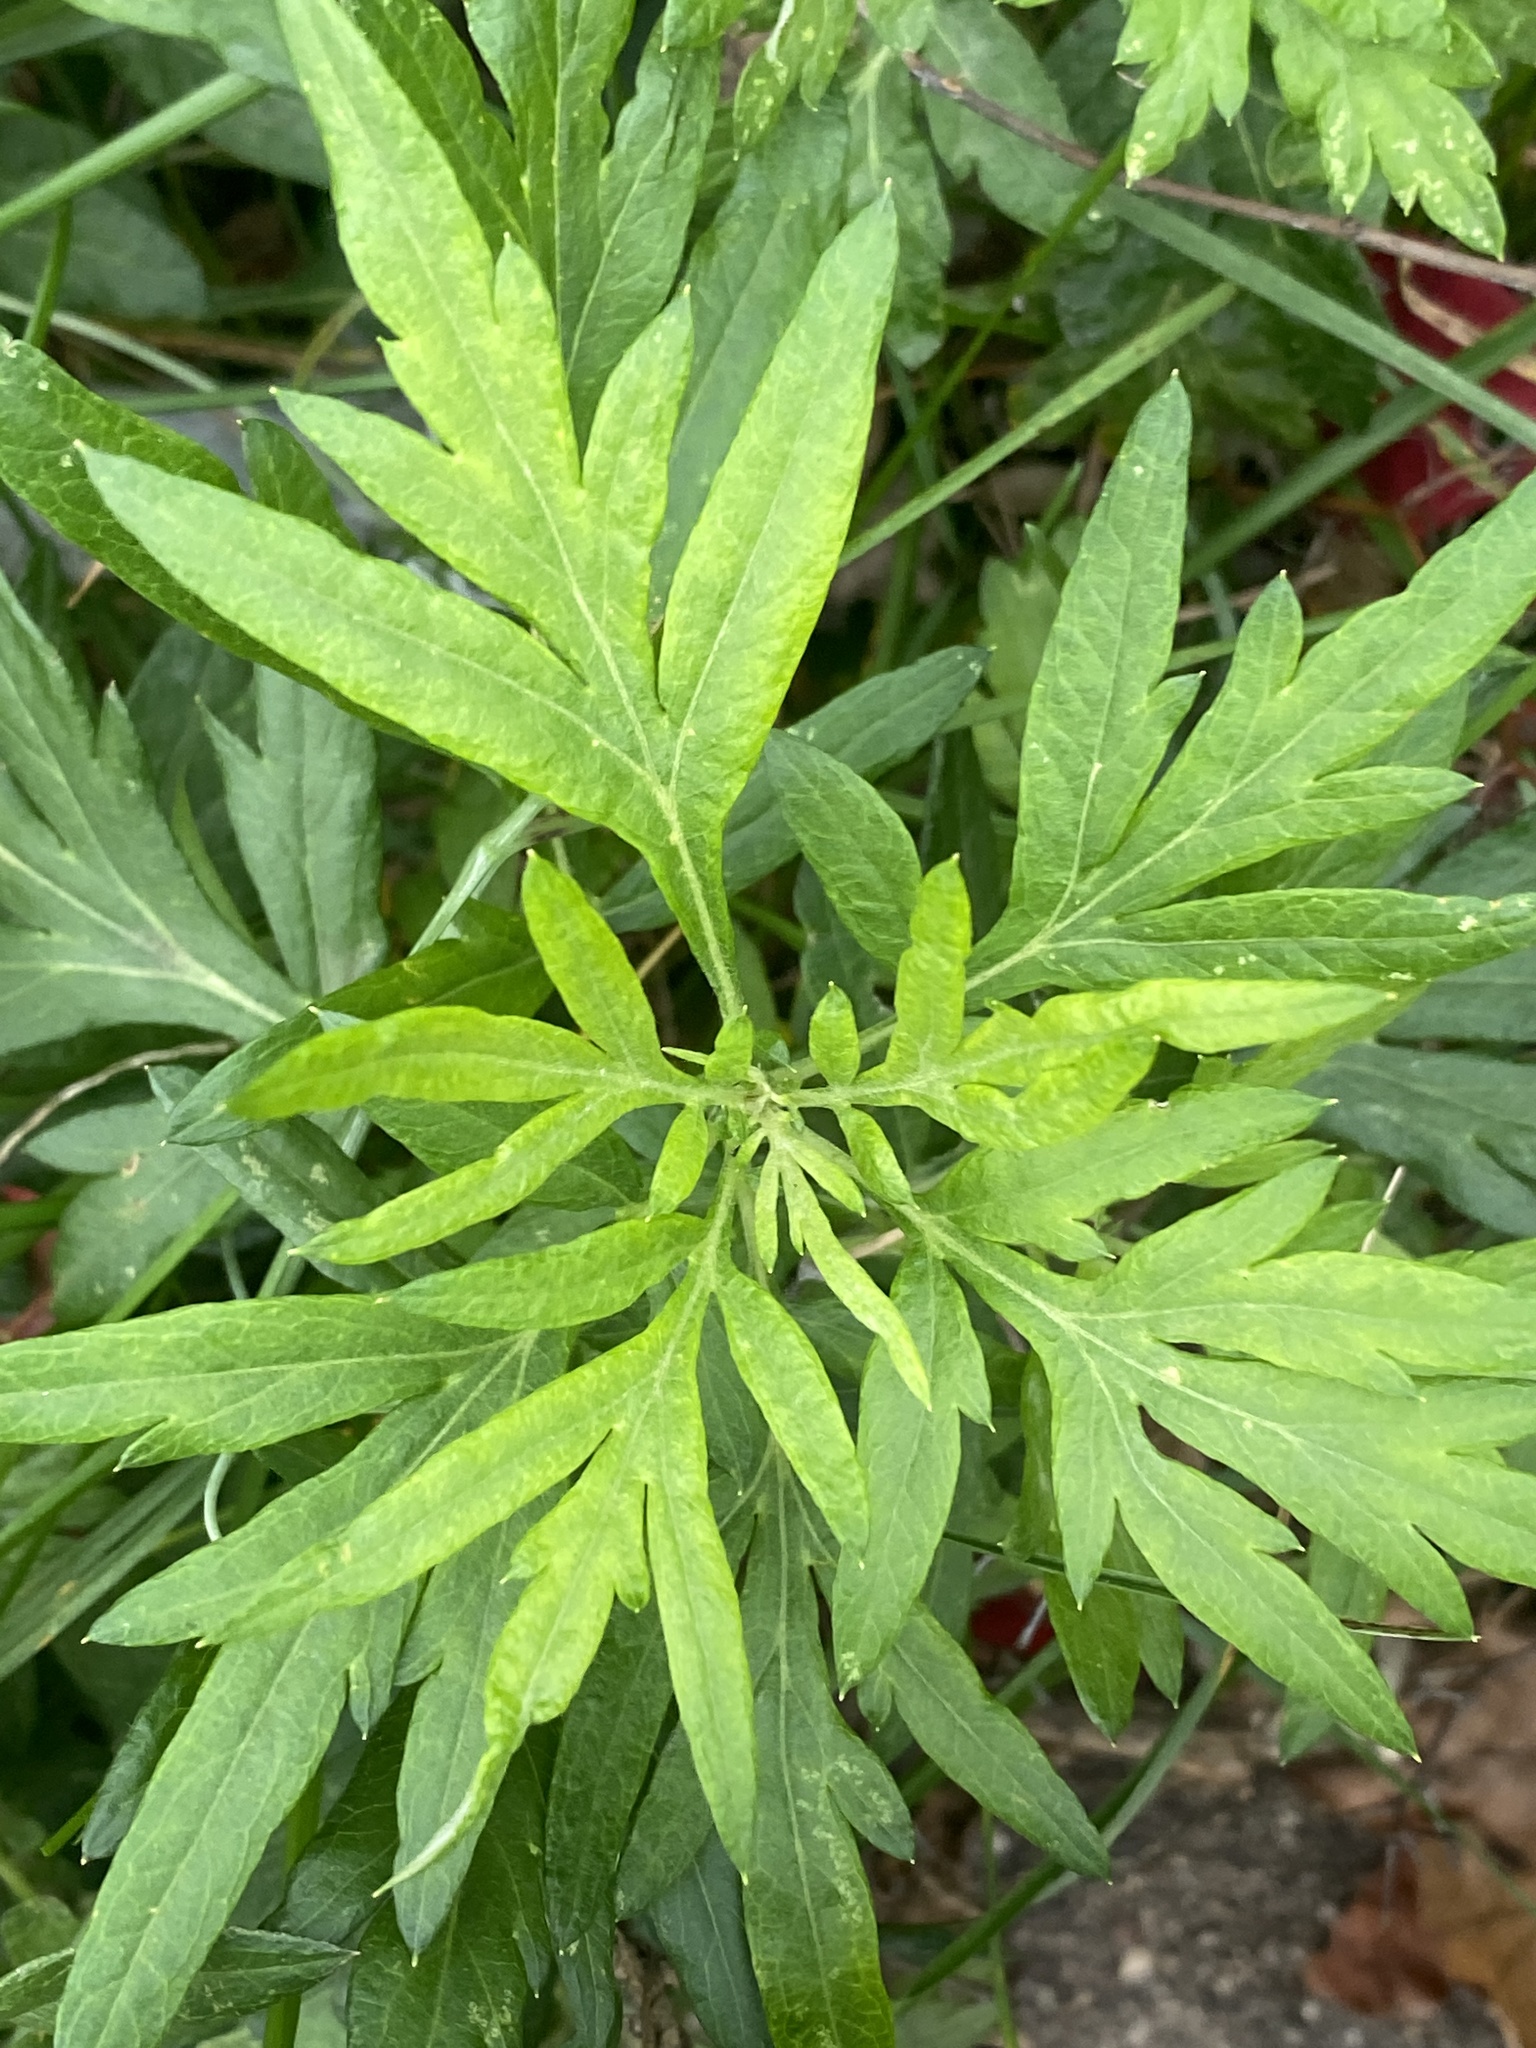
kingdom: Plantae
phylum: Tracheophyta
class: Magnoliopsida
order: Asterales
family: Asteraceae
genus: Artemisia
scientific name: Artemisia vulgaris
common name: Mugwort
